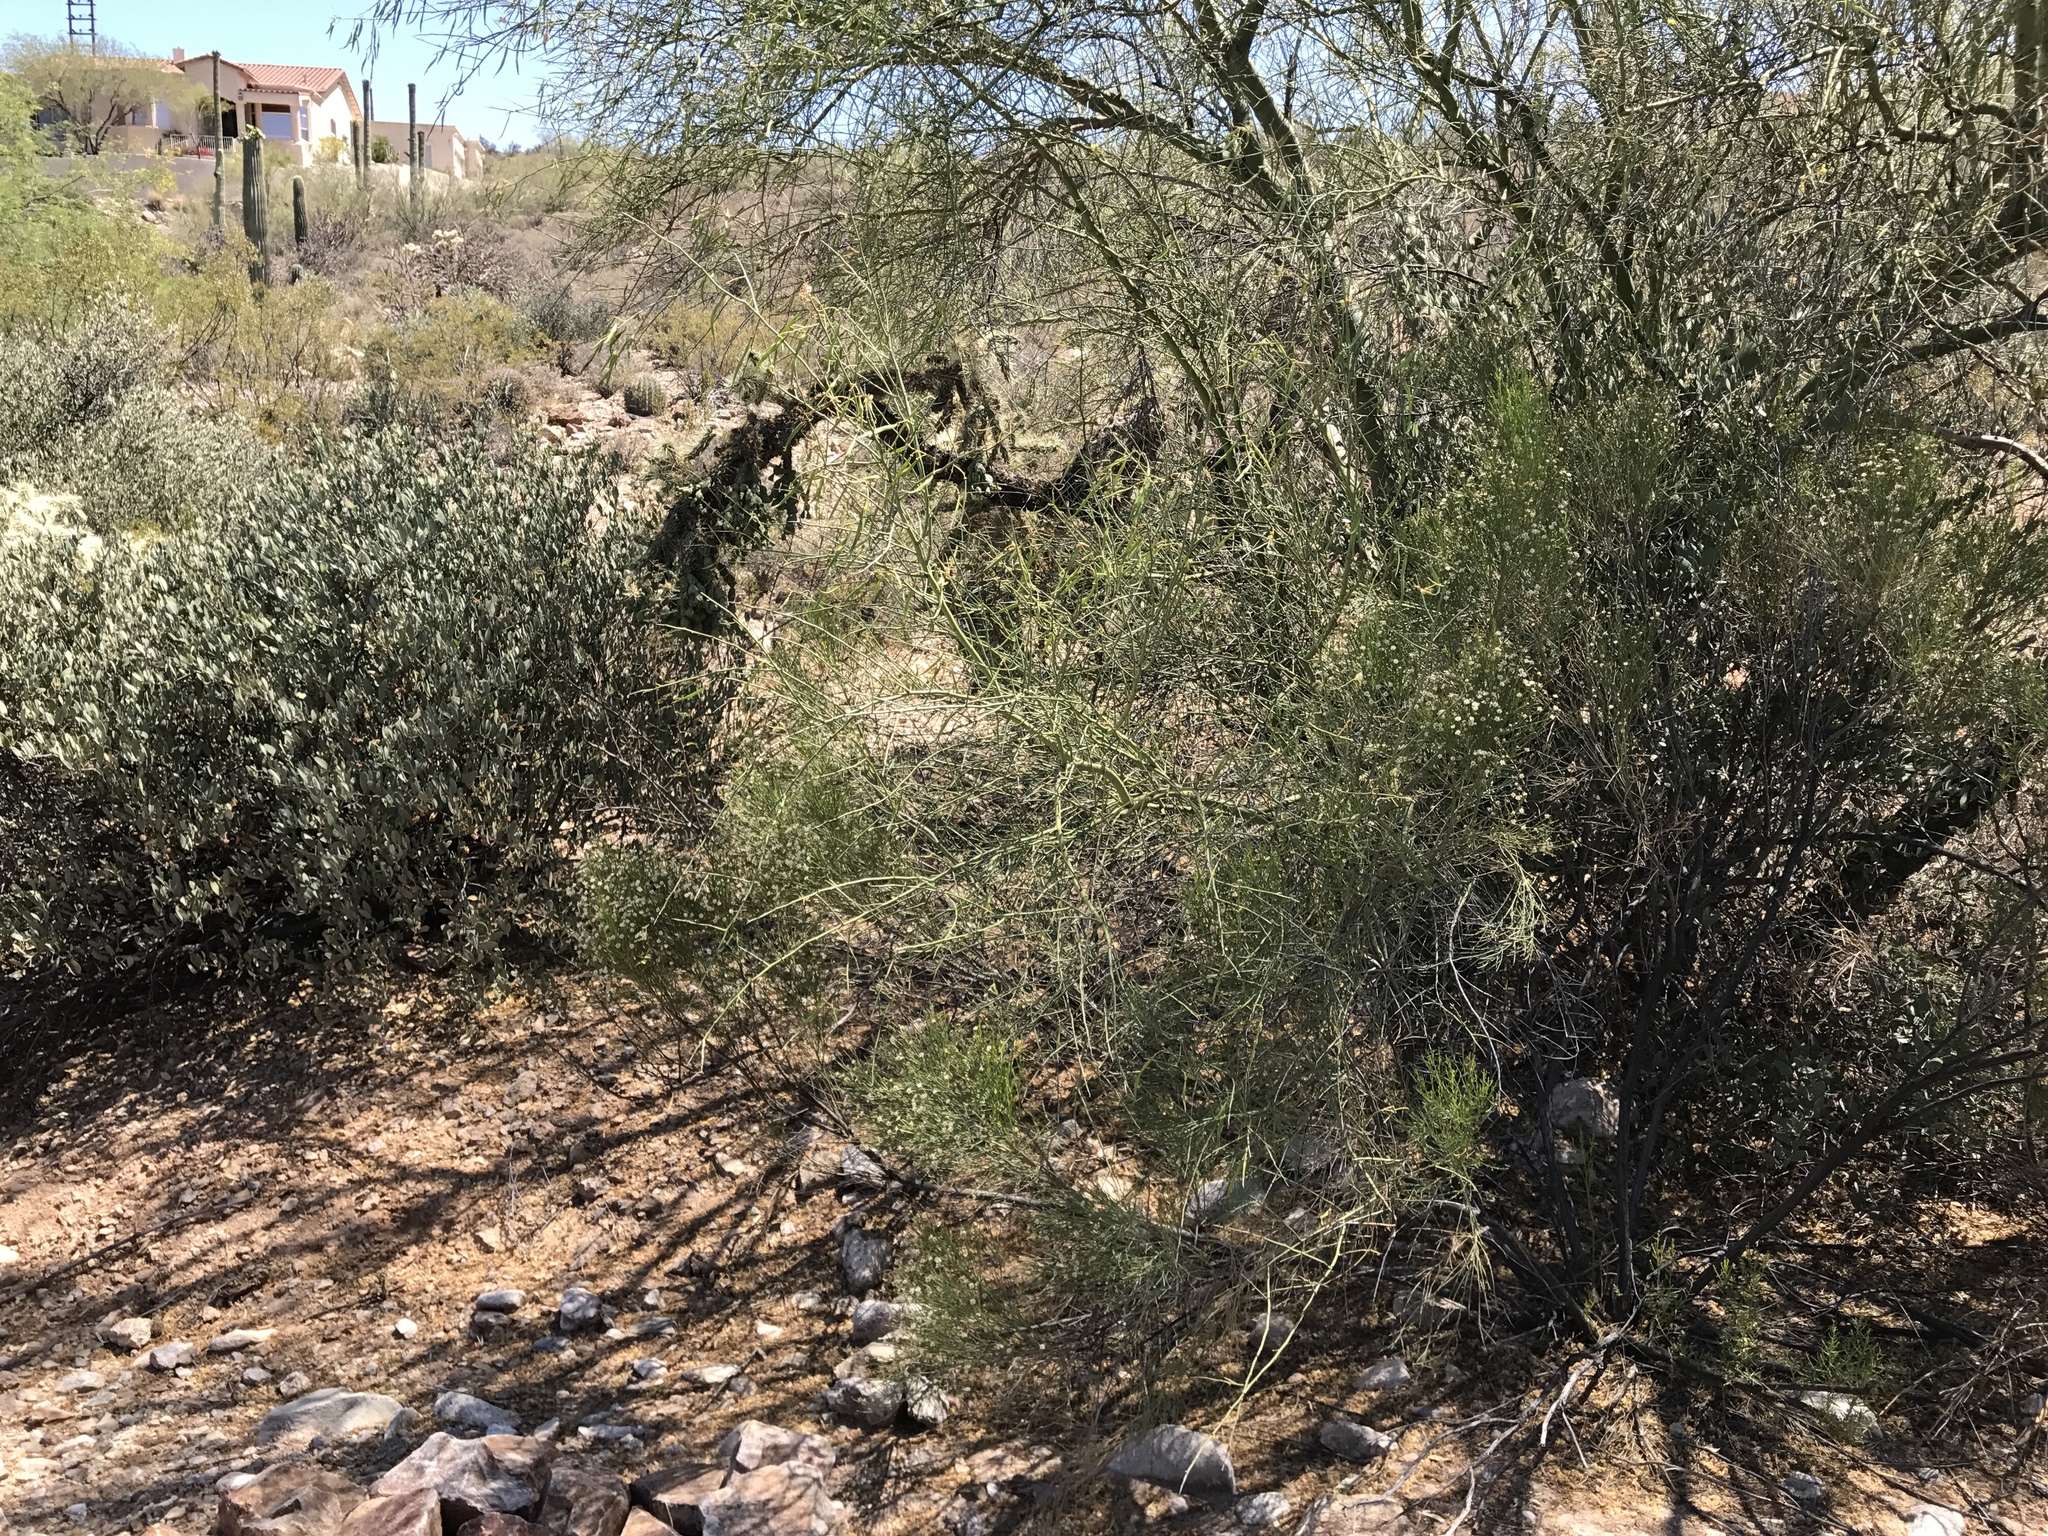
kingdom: Plantae
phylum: Tracheophyta
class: Magnoliopsida
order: Fabales
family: Fabaceae
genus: Parkinsonia
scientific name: Parkinsonia florida
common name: Blue paloverde
